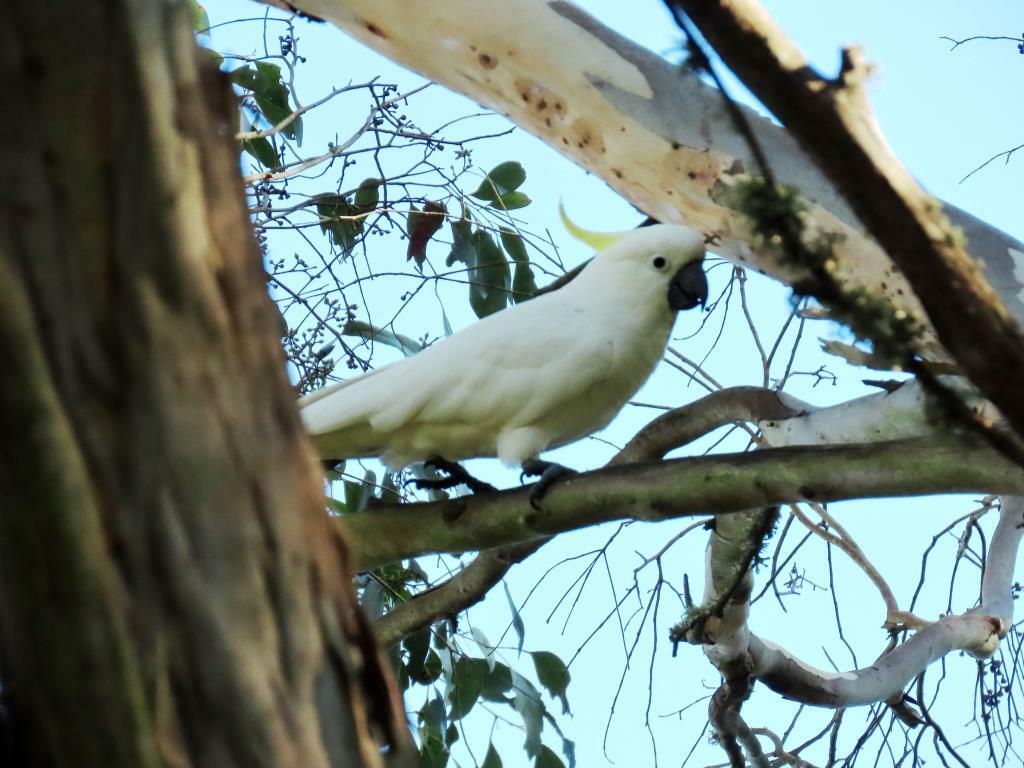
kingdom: Animalia
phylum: Chordata
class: Aves
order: Psittaciformes
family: Psittacidae
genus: Cacatua
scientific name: Cacatua galerita
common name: Sulphur-crested cockatoo
